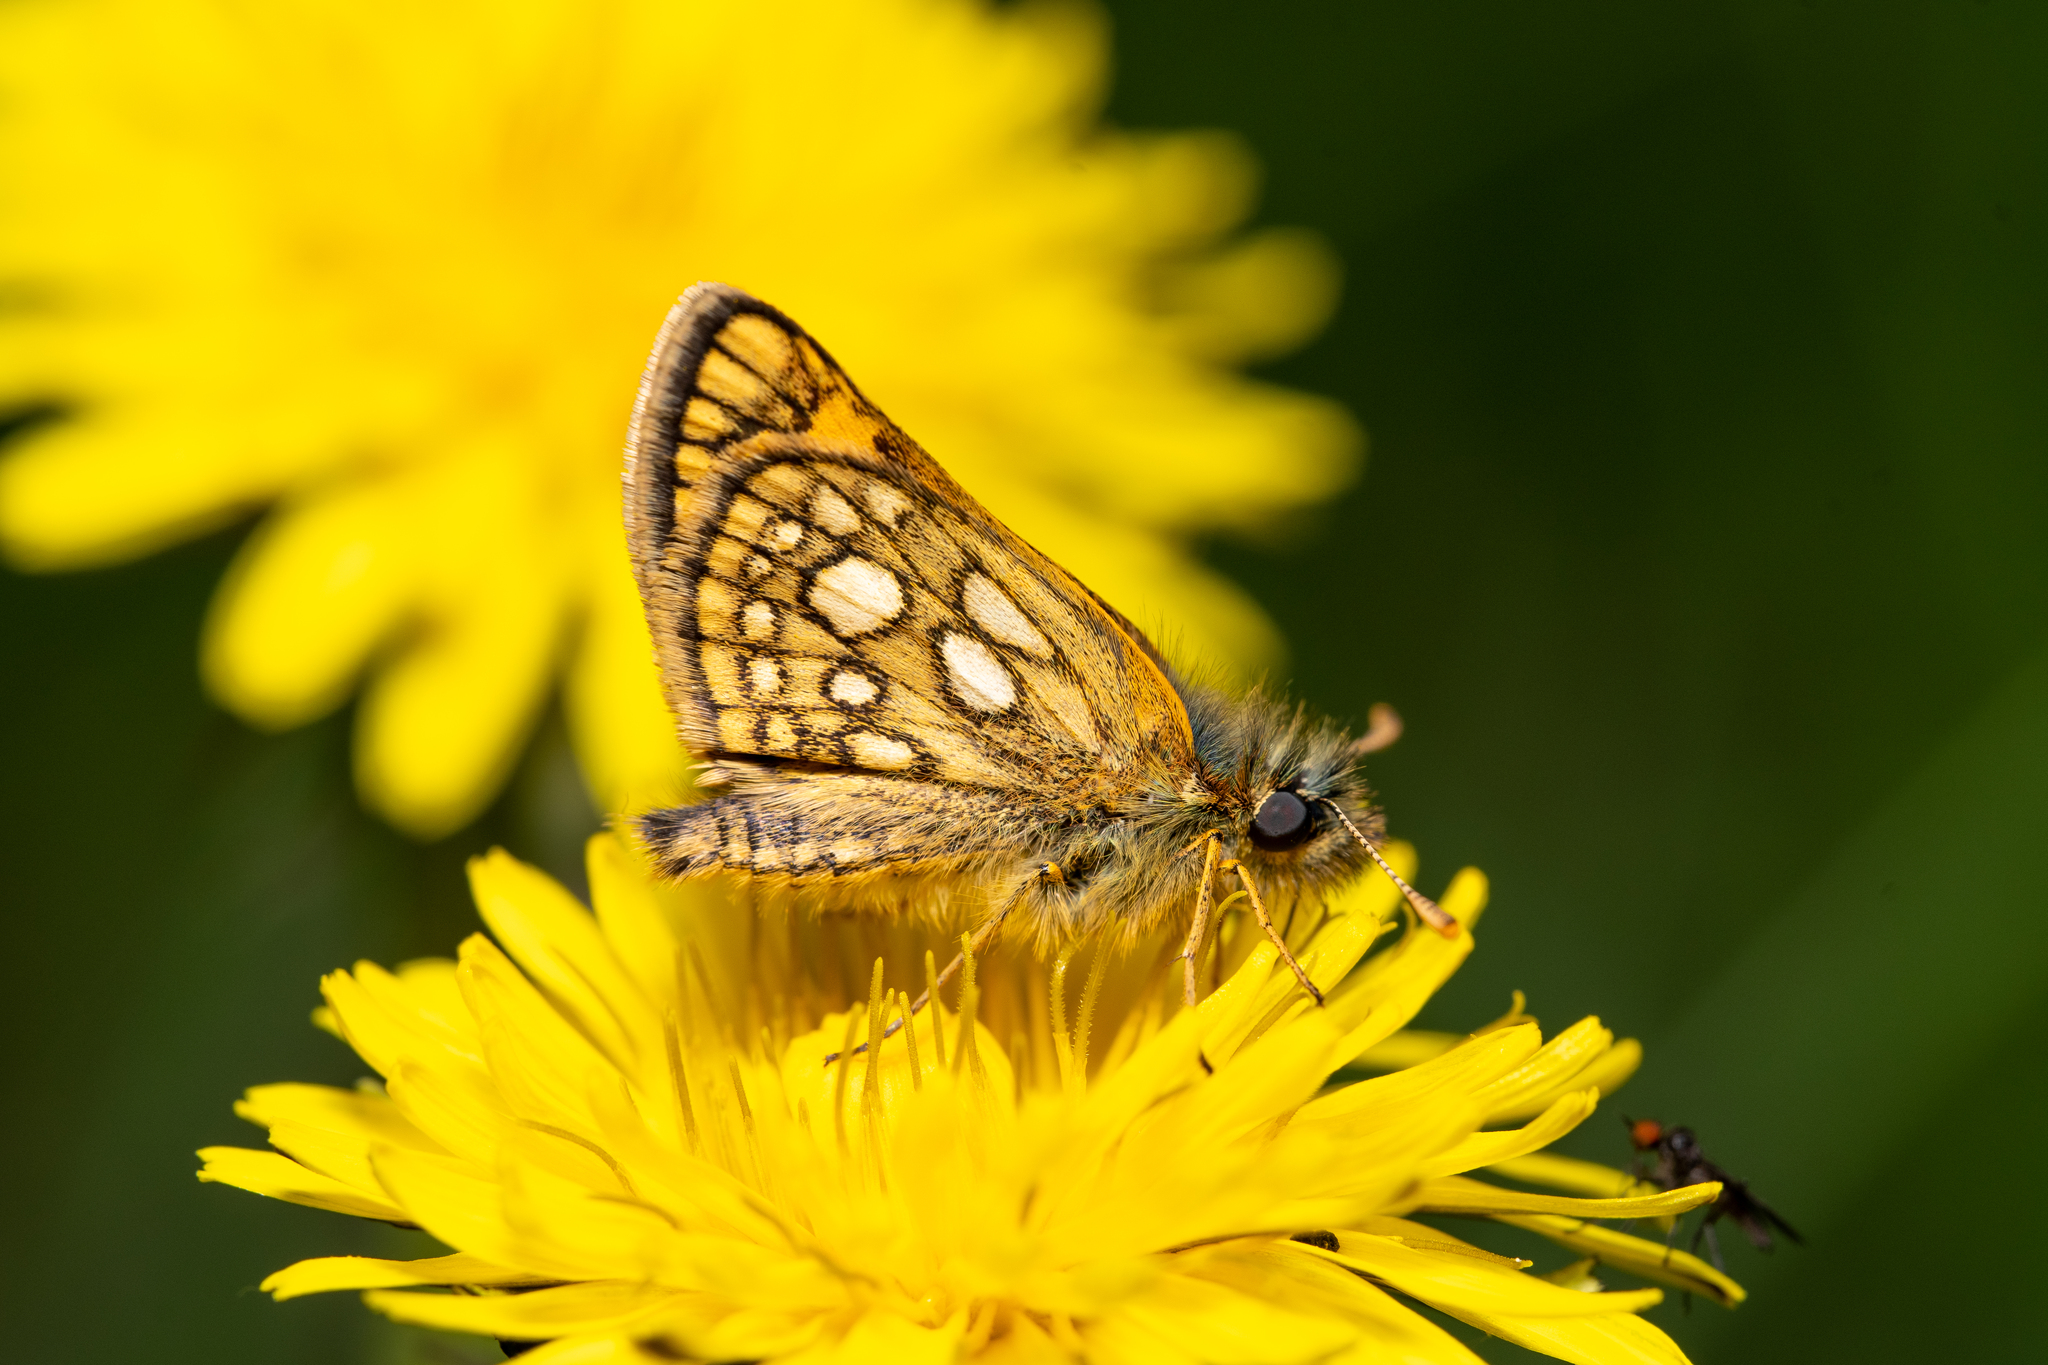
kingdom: Animalia
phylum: Arthropoda
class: Insecta
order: Lepidoptera
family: Hesperiidae
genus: Carterocephalus
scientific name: Carterocephalus palaemon
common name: Chequered skipper
